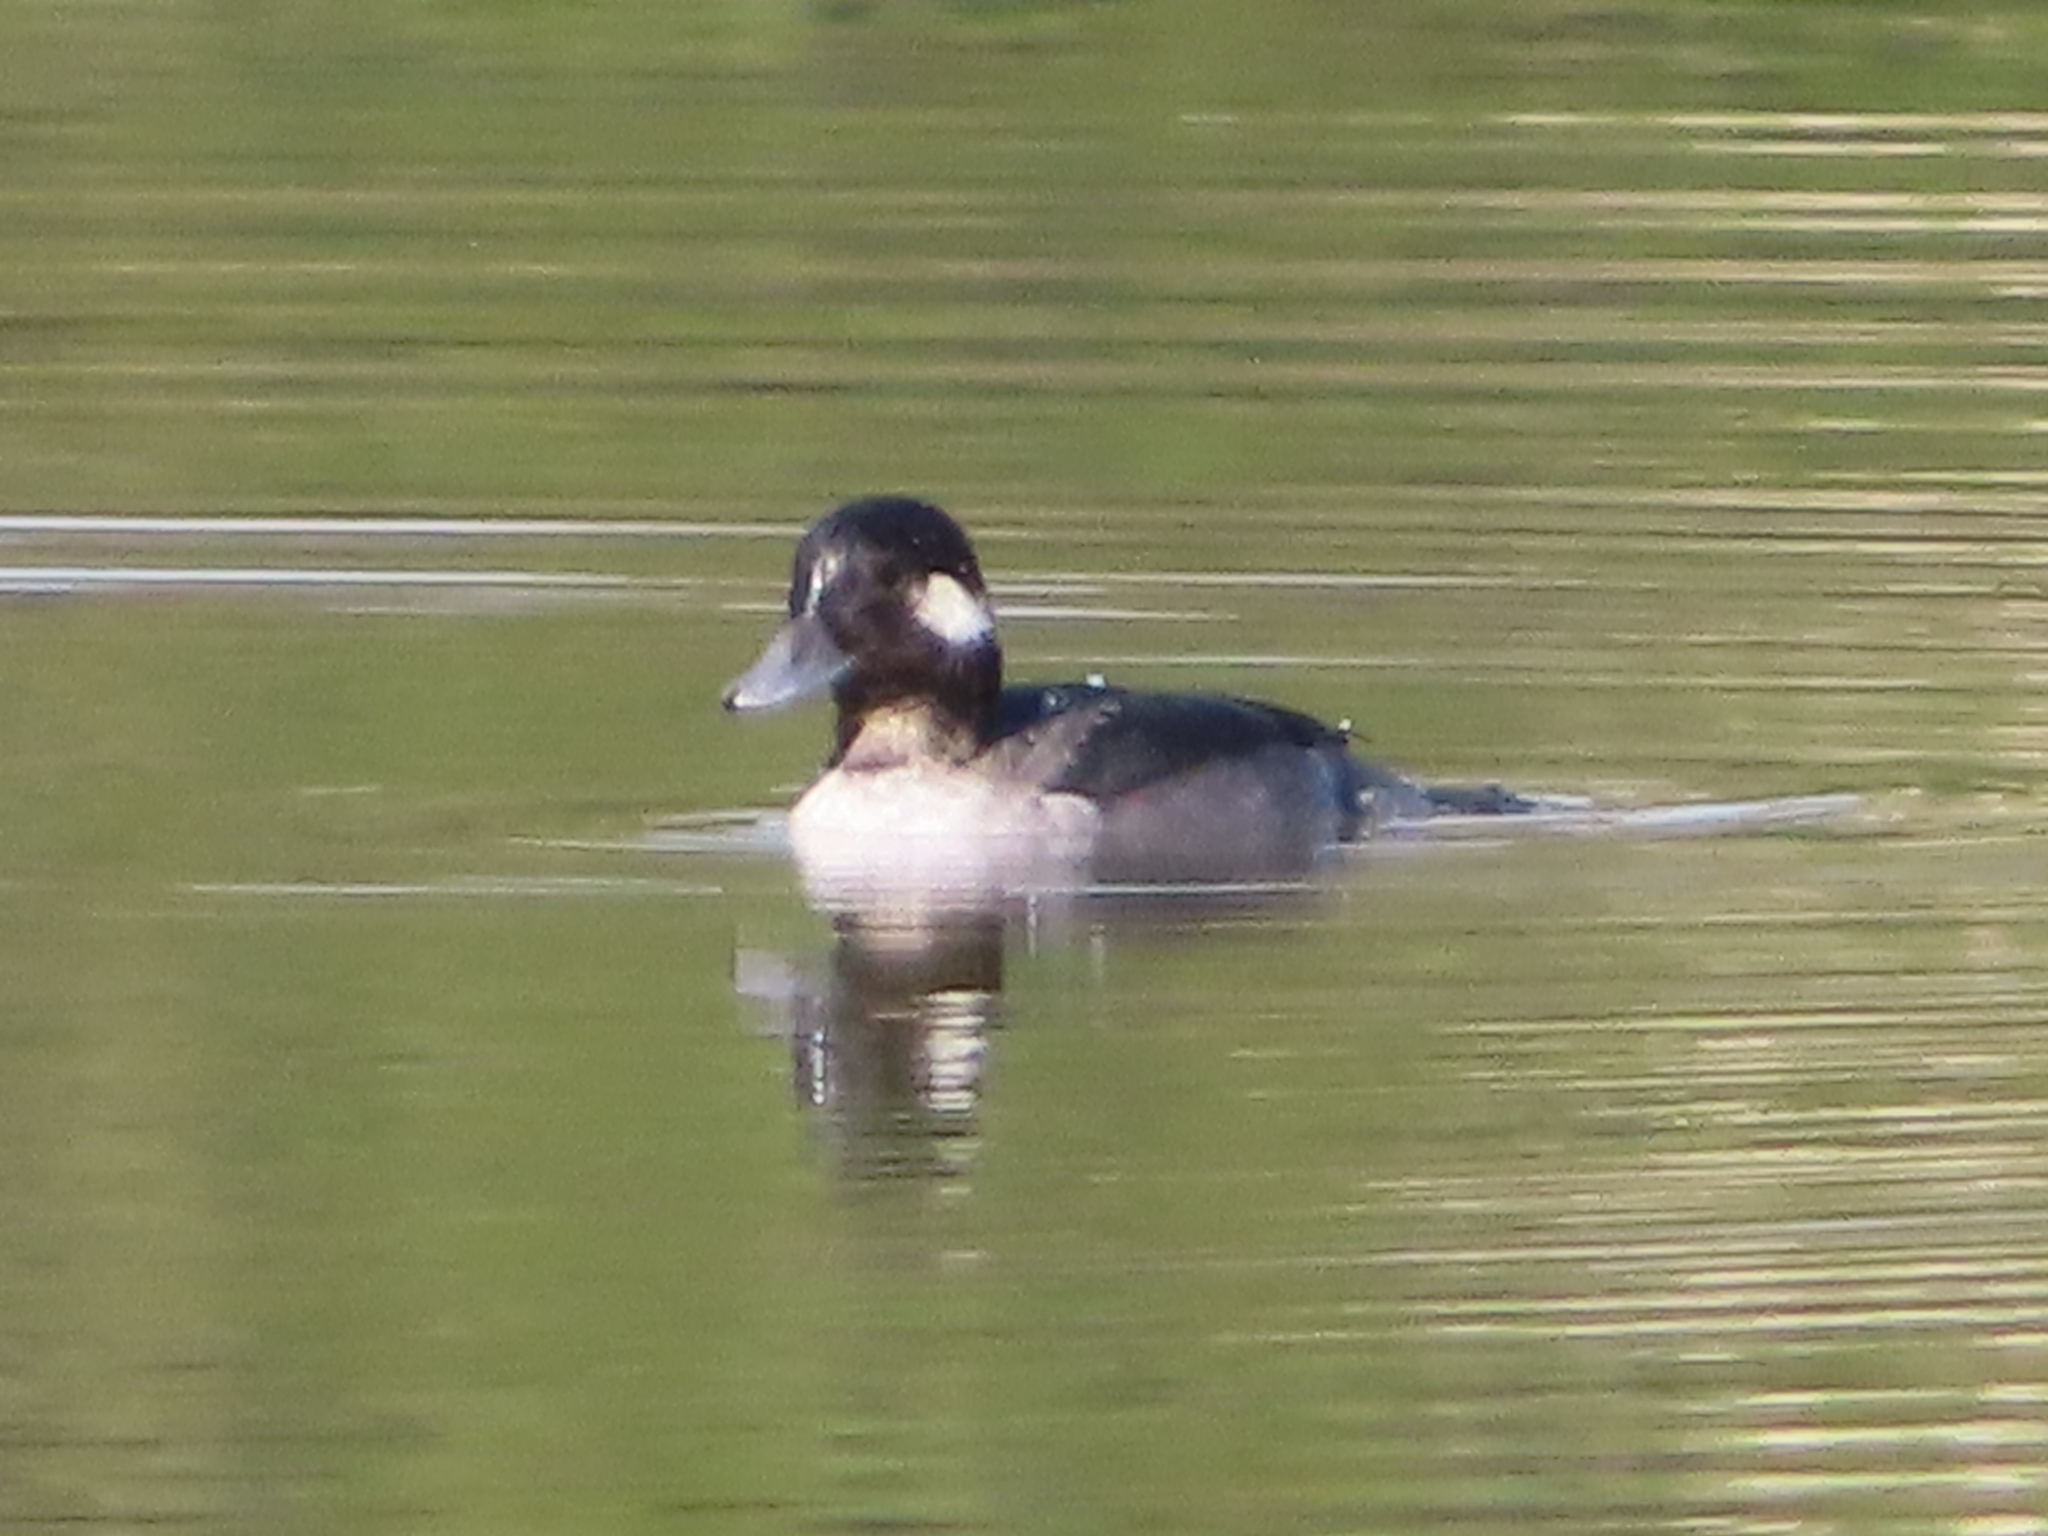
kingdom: Animalia
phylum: Chordata
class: Aves
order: Anseriformes
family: Anatidae
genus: Bucephala
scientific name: Bucephala albeola
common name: Bufflehead
